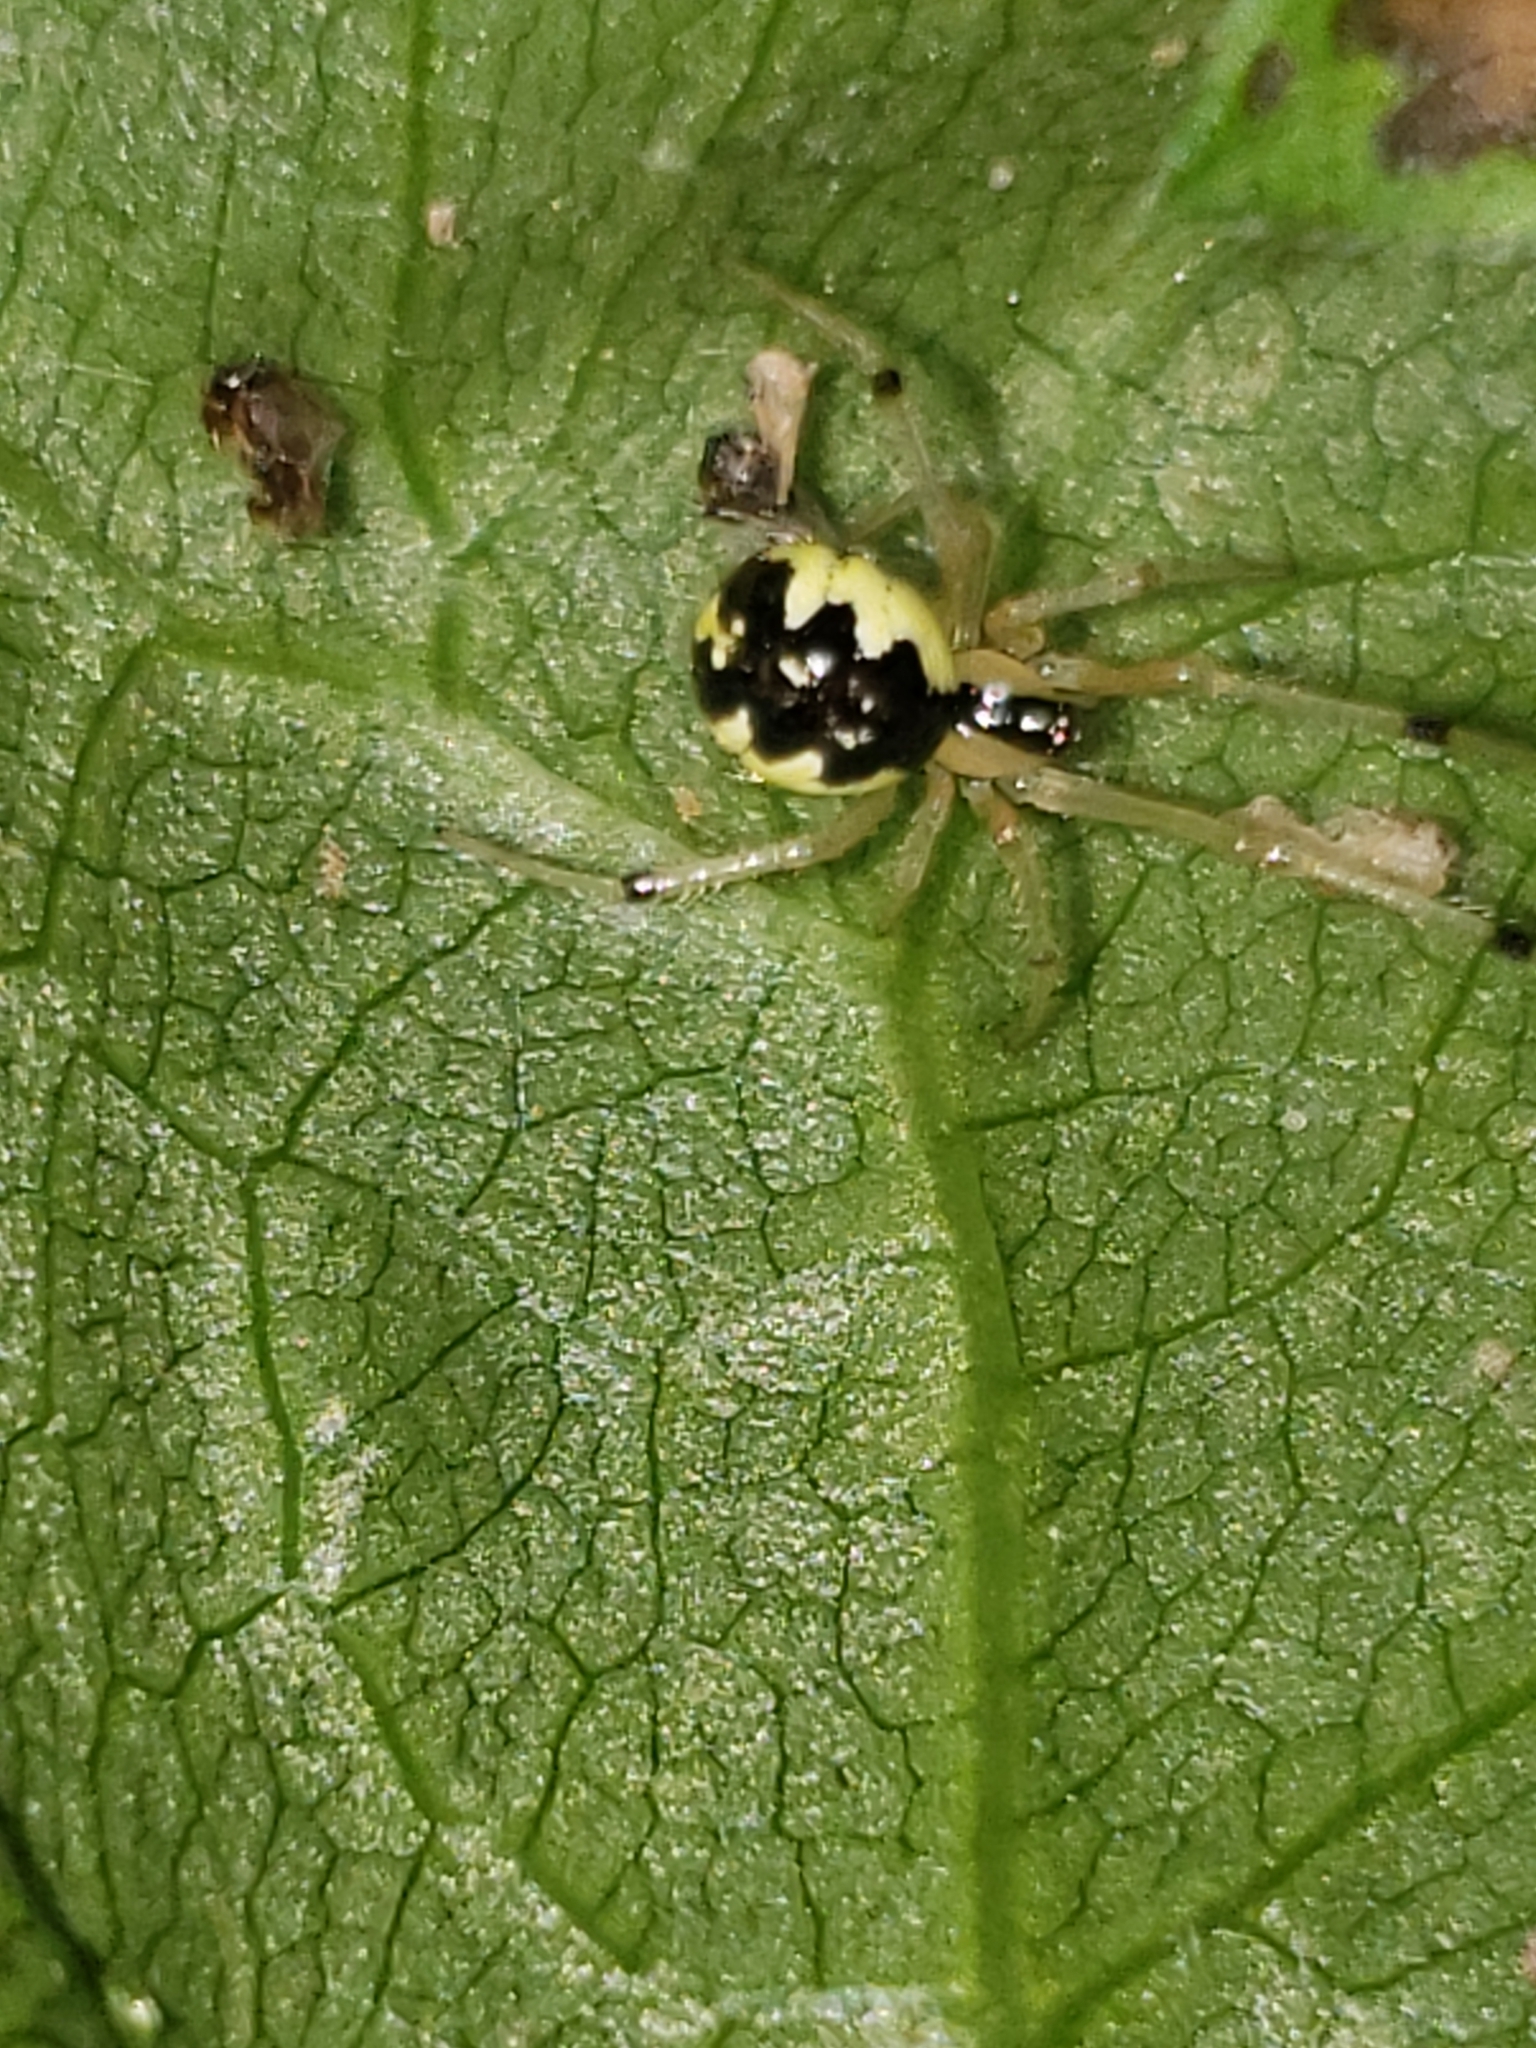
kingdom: Animalia
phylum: Arthropoda
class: Arachnida
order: Araneae
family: Theridiidae
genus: Phylloneta
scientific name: Phylloneta pictipes
